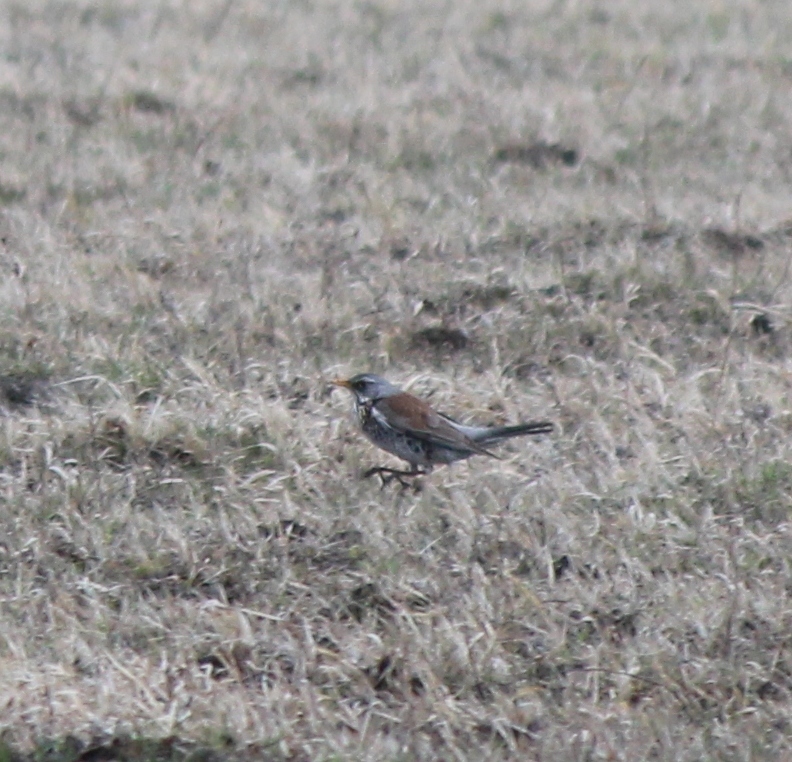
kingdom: Animalia
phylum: Chordata
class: Aves
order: Passeriformes
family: Turdidae
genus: Turdus
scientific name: Turdus pilaris
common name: Fieldfare
